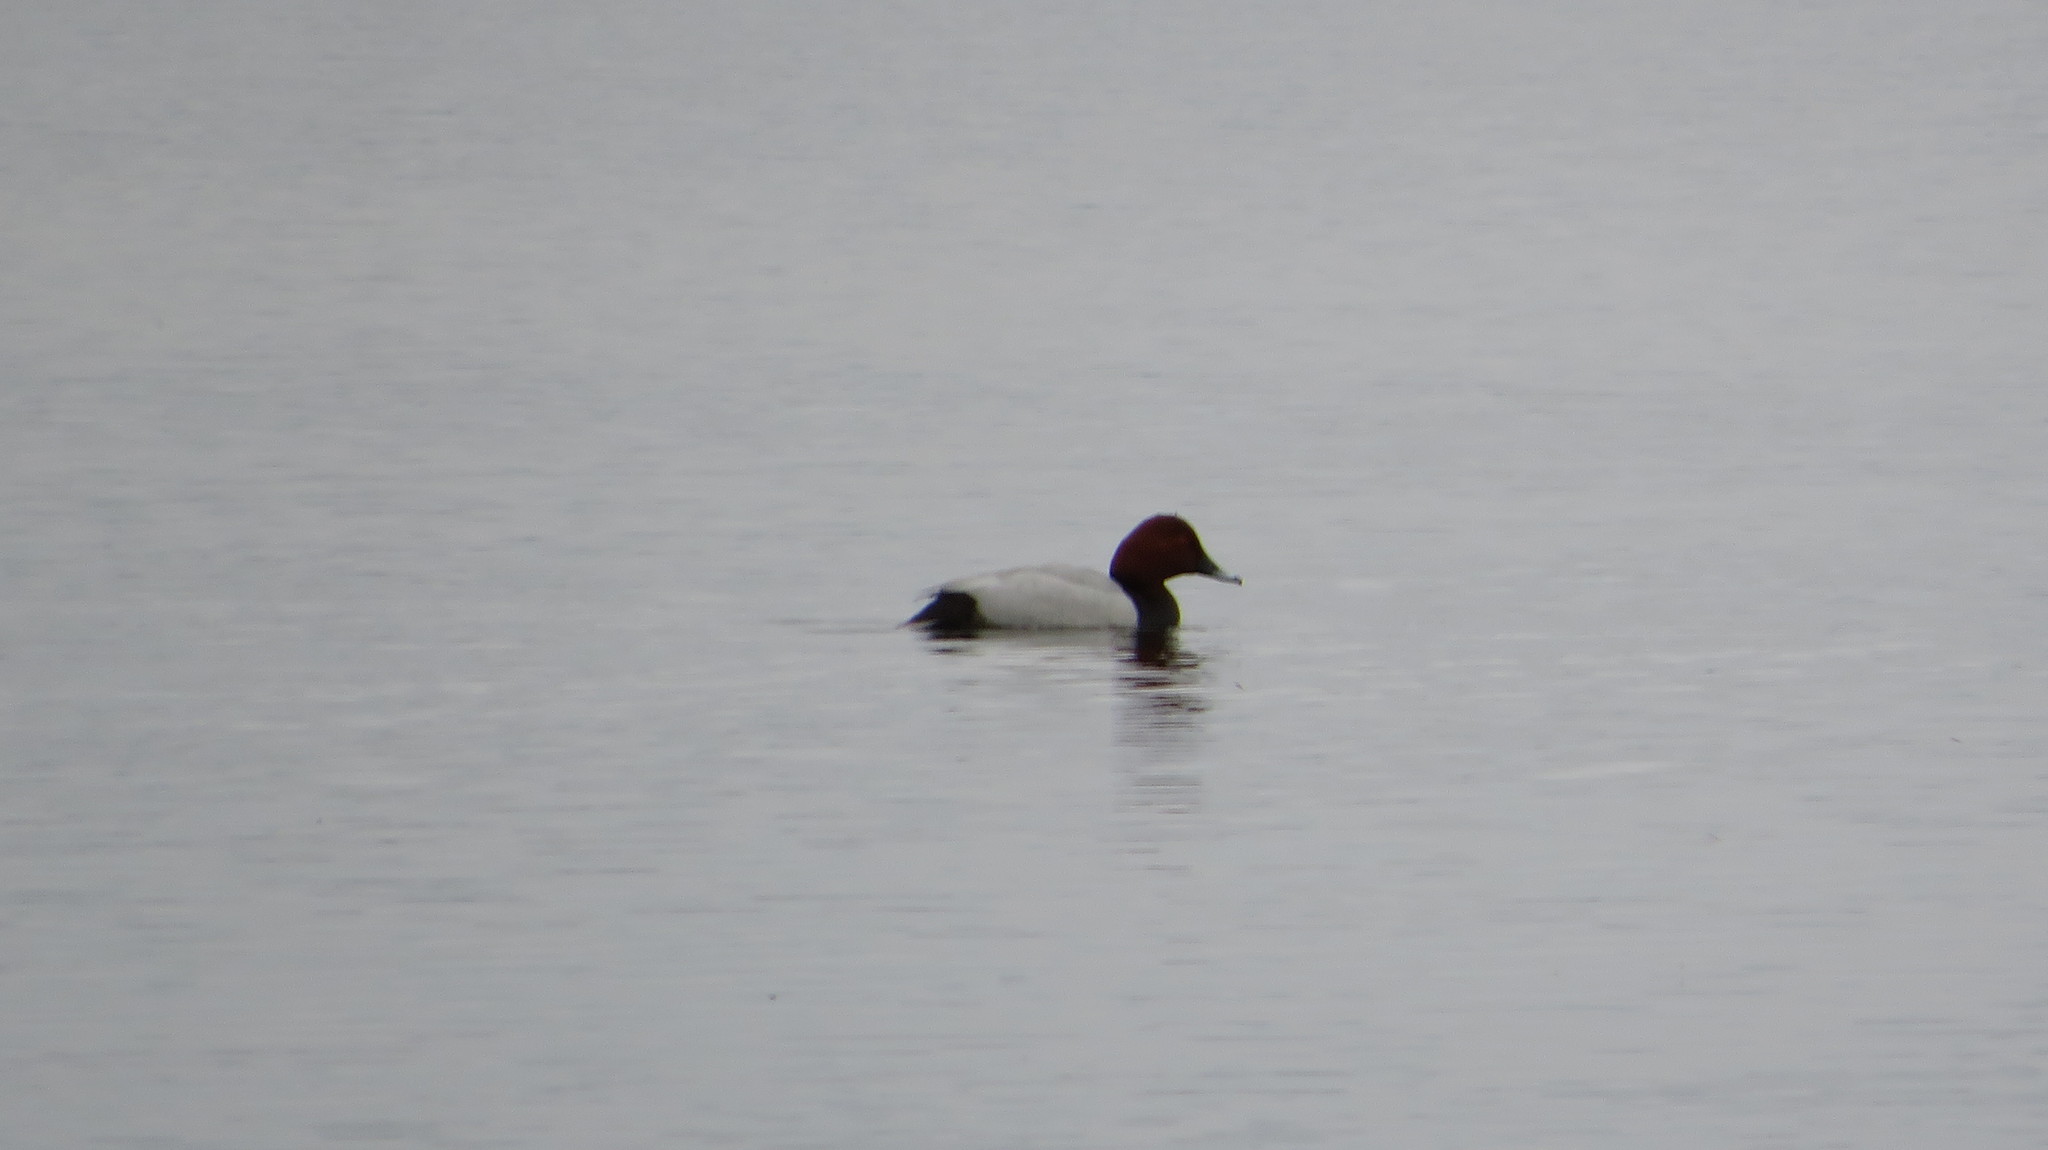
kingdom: Animalia
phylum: Chordata
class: Aves
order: Anseriformes
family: Anatidae
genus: Aythya
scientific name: Aythya ferina
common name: Common pochard
